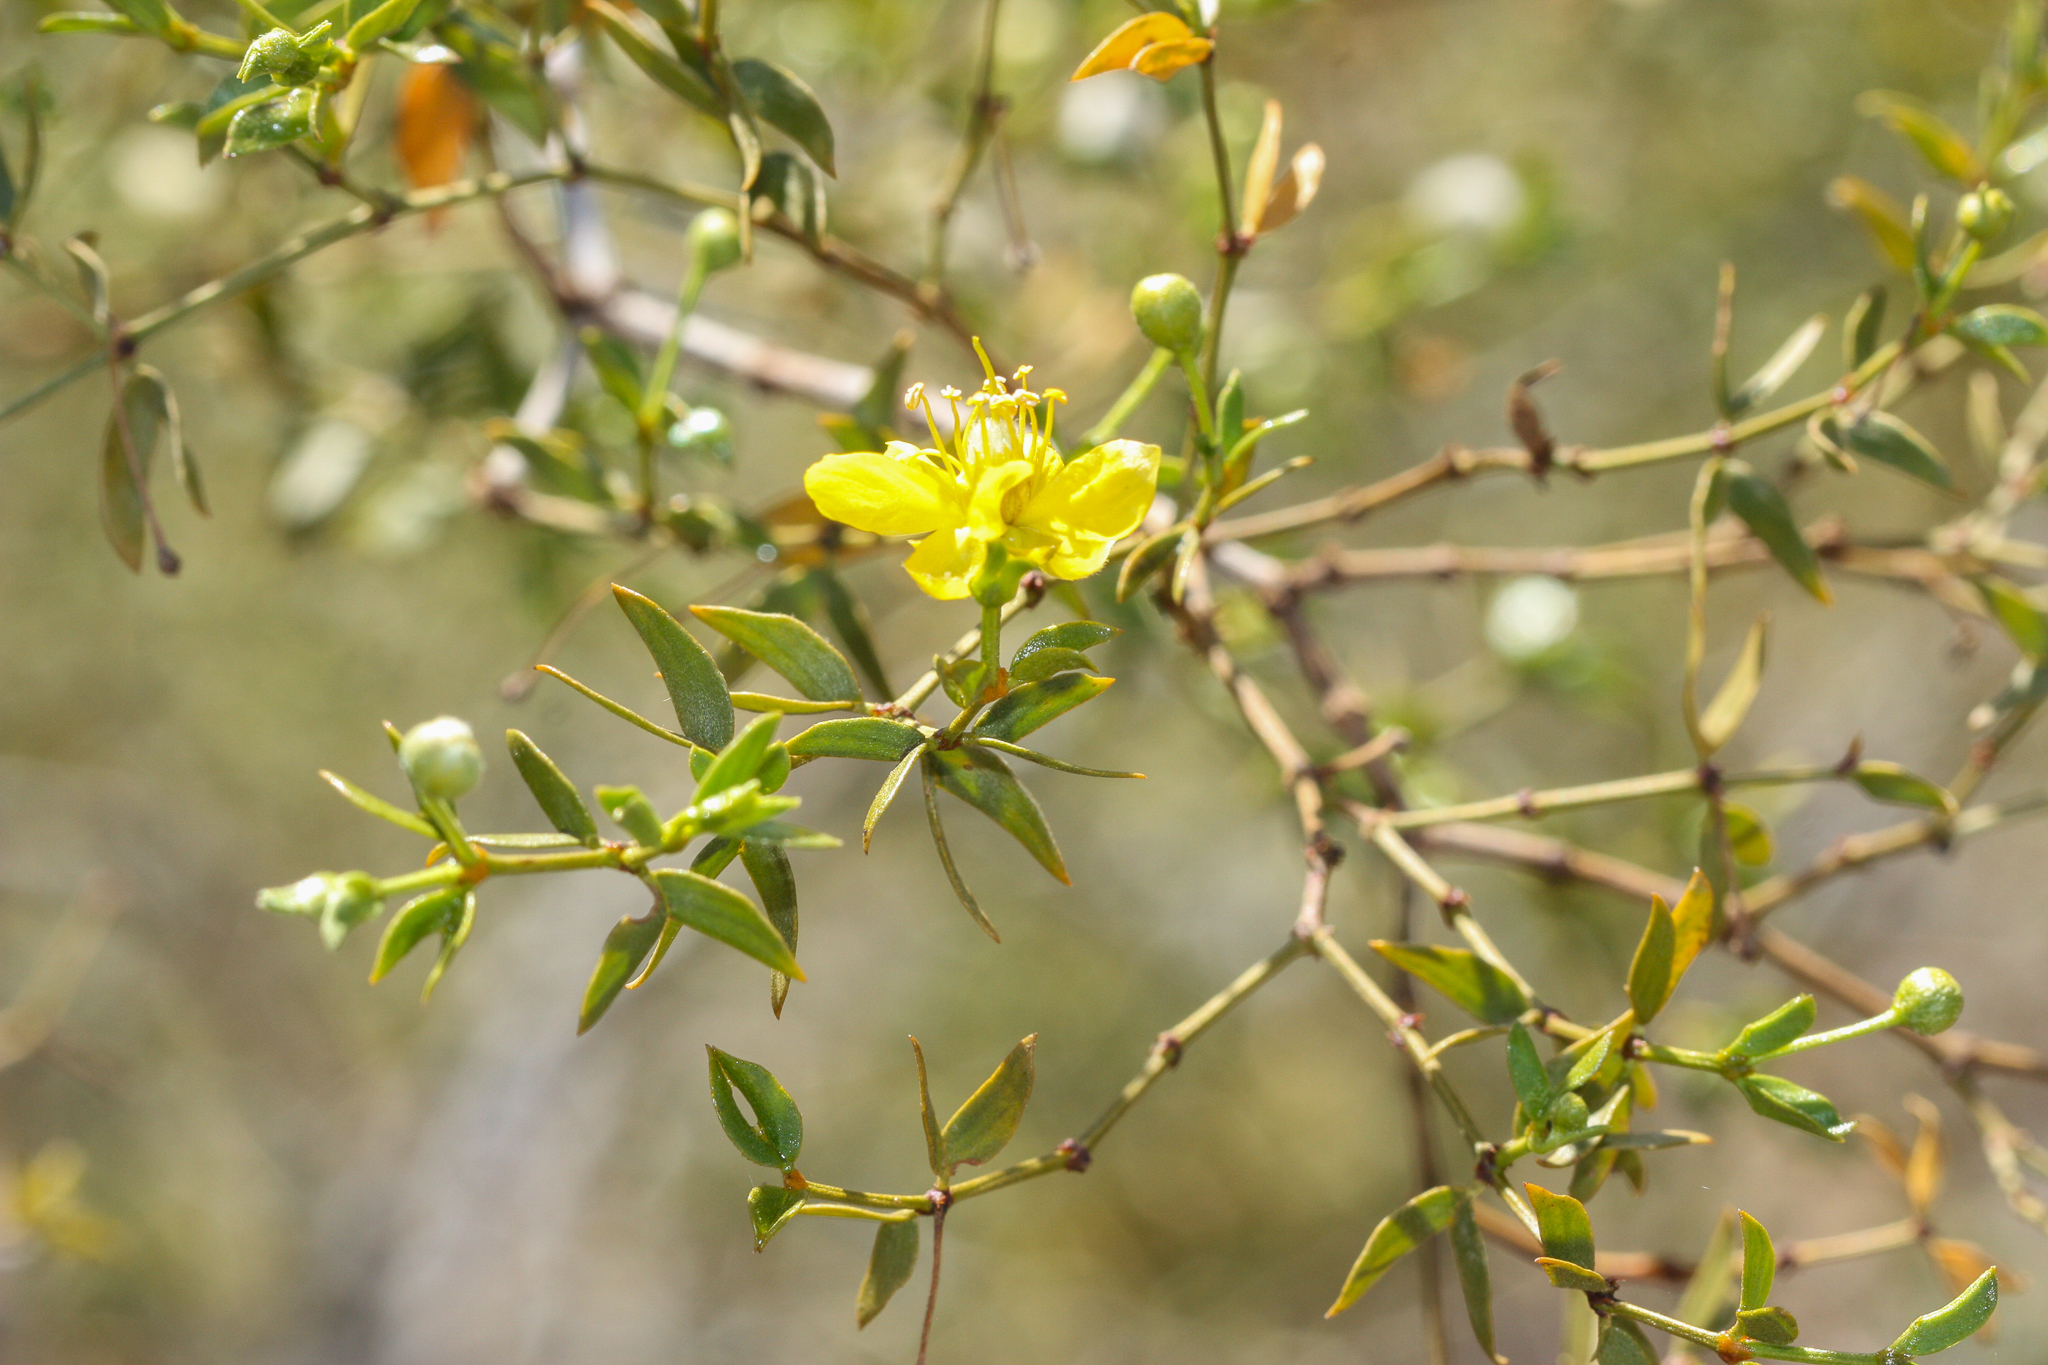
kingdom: Plantae
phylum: Tracheophyta
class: Magnoliopsida
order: Zygophyllales
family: Zygophyllaceae
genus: Larrea
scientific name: Larrea tridentata
